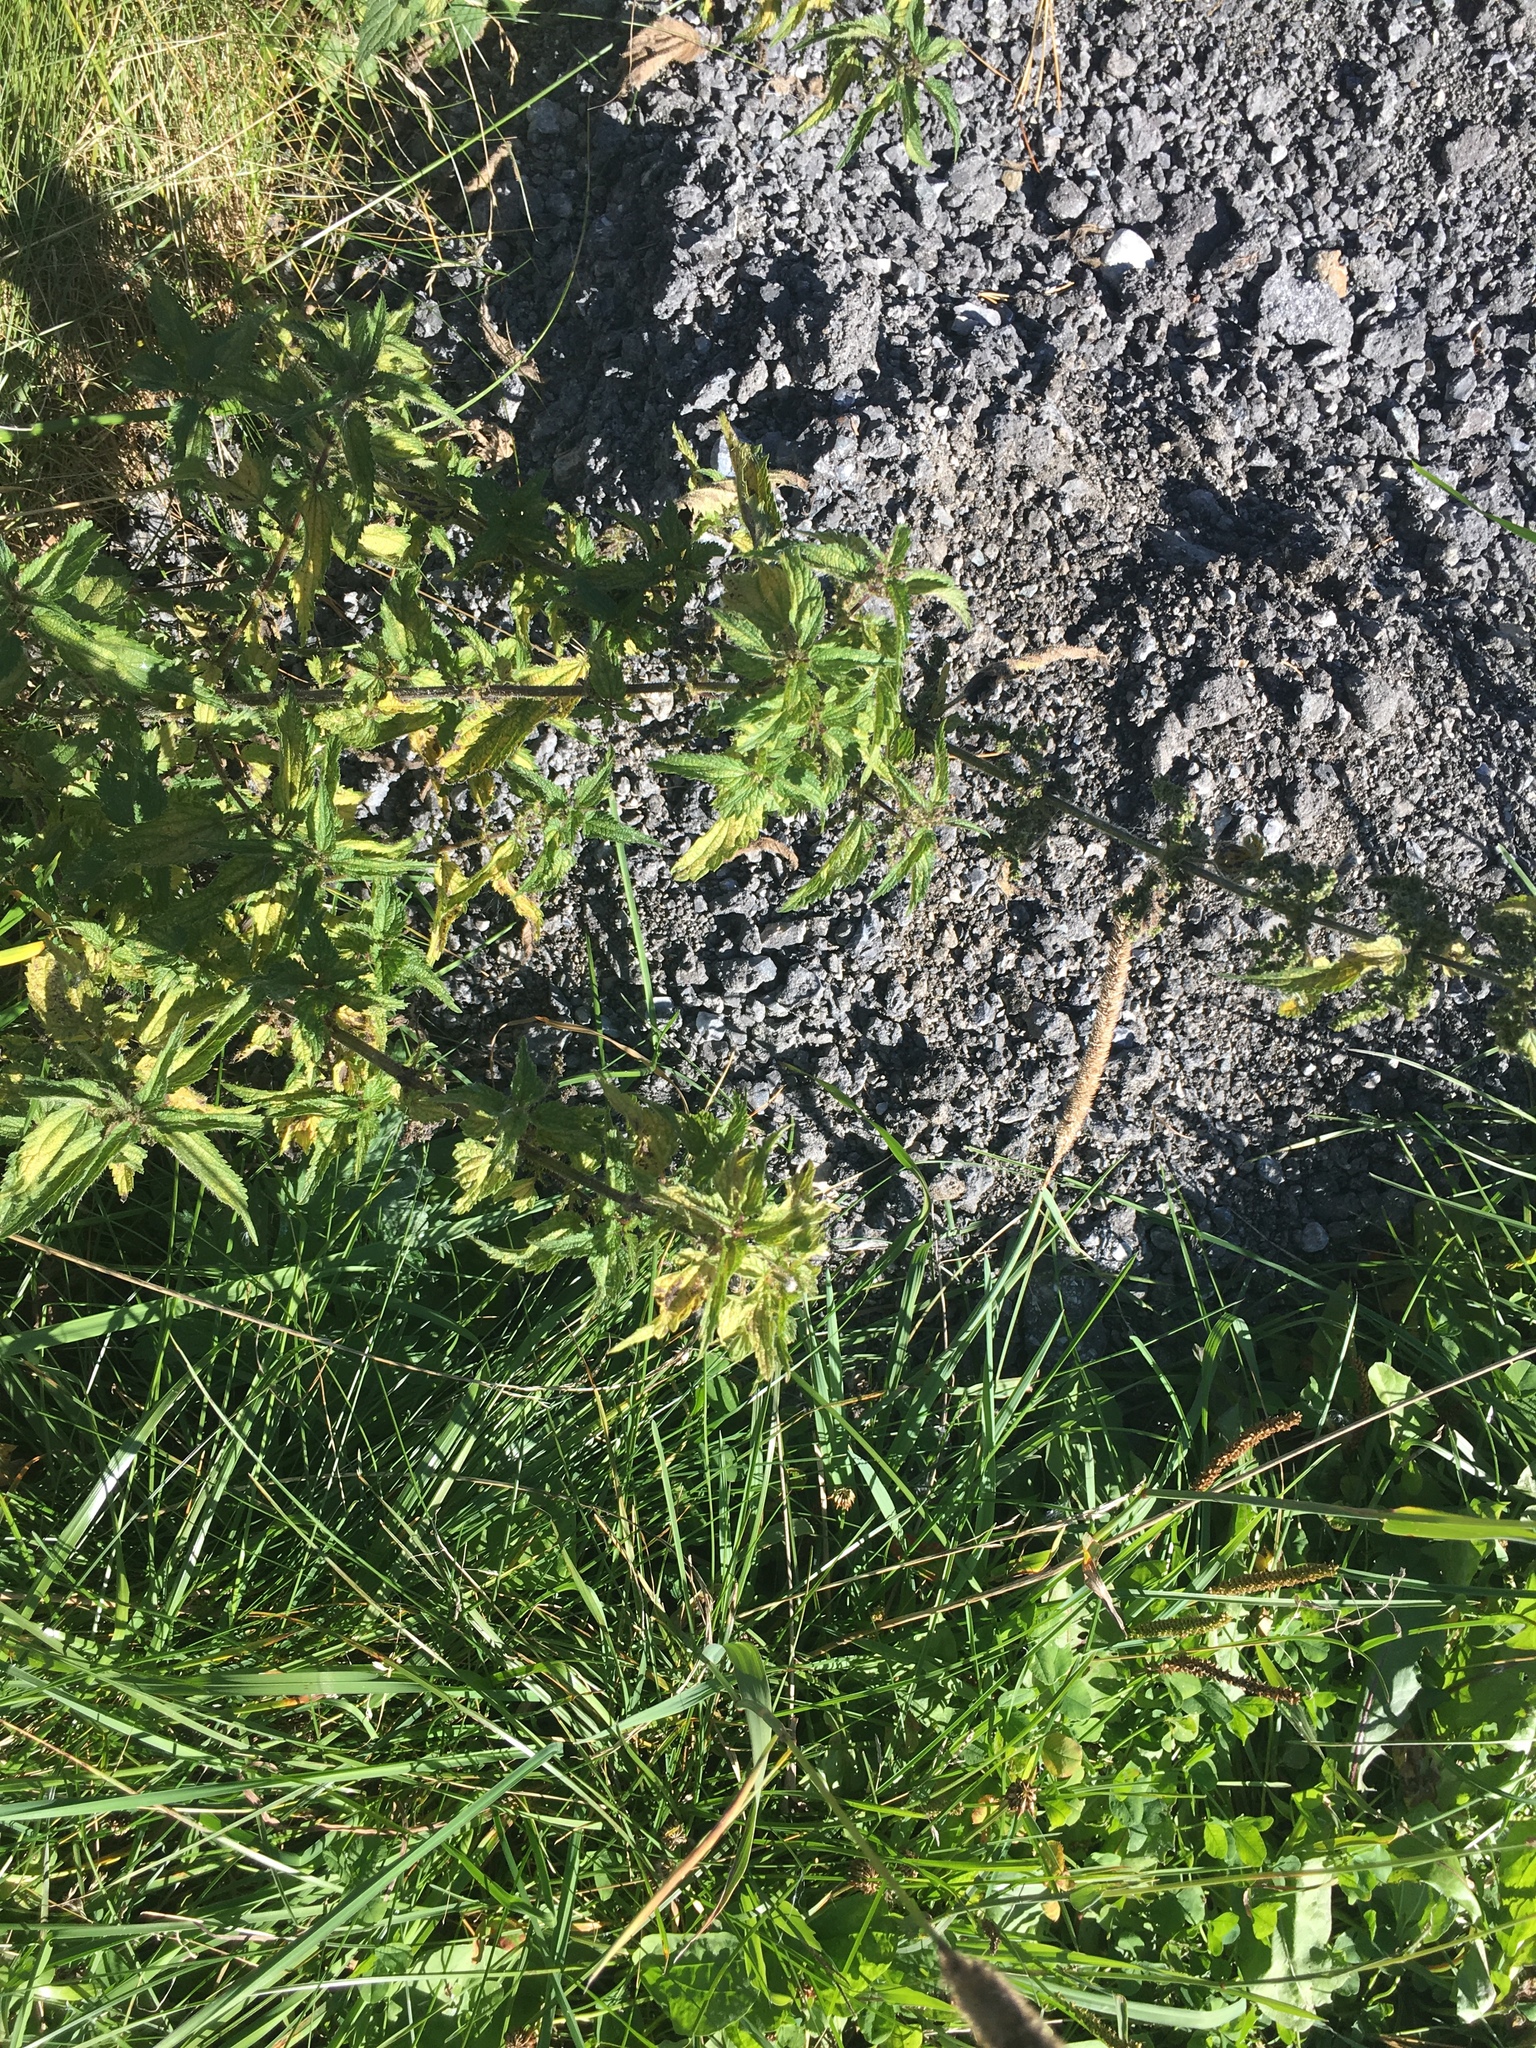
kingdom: Plantae
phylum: Tracheophyta
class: Magnoliopsida
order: Rosales
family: Urticaceae
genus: Urtica
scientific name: Urtica dioica
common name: Common nettle
